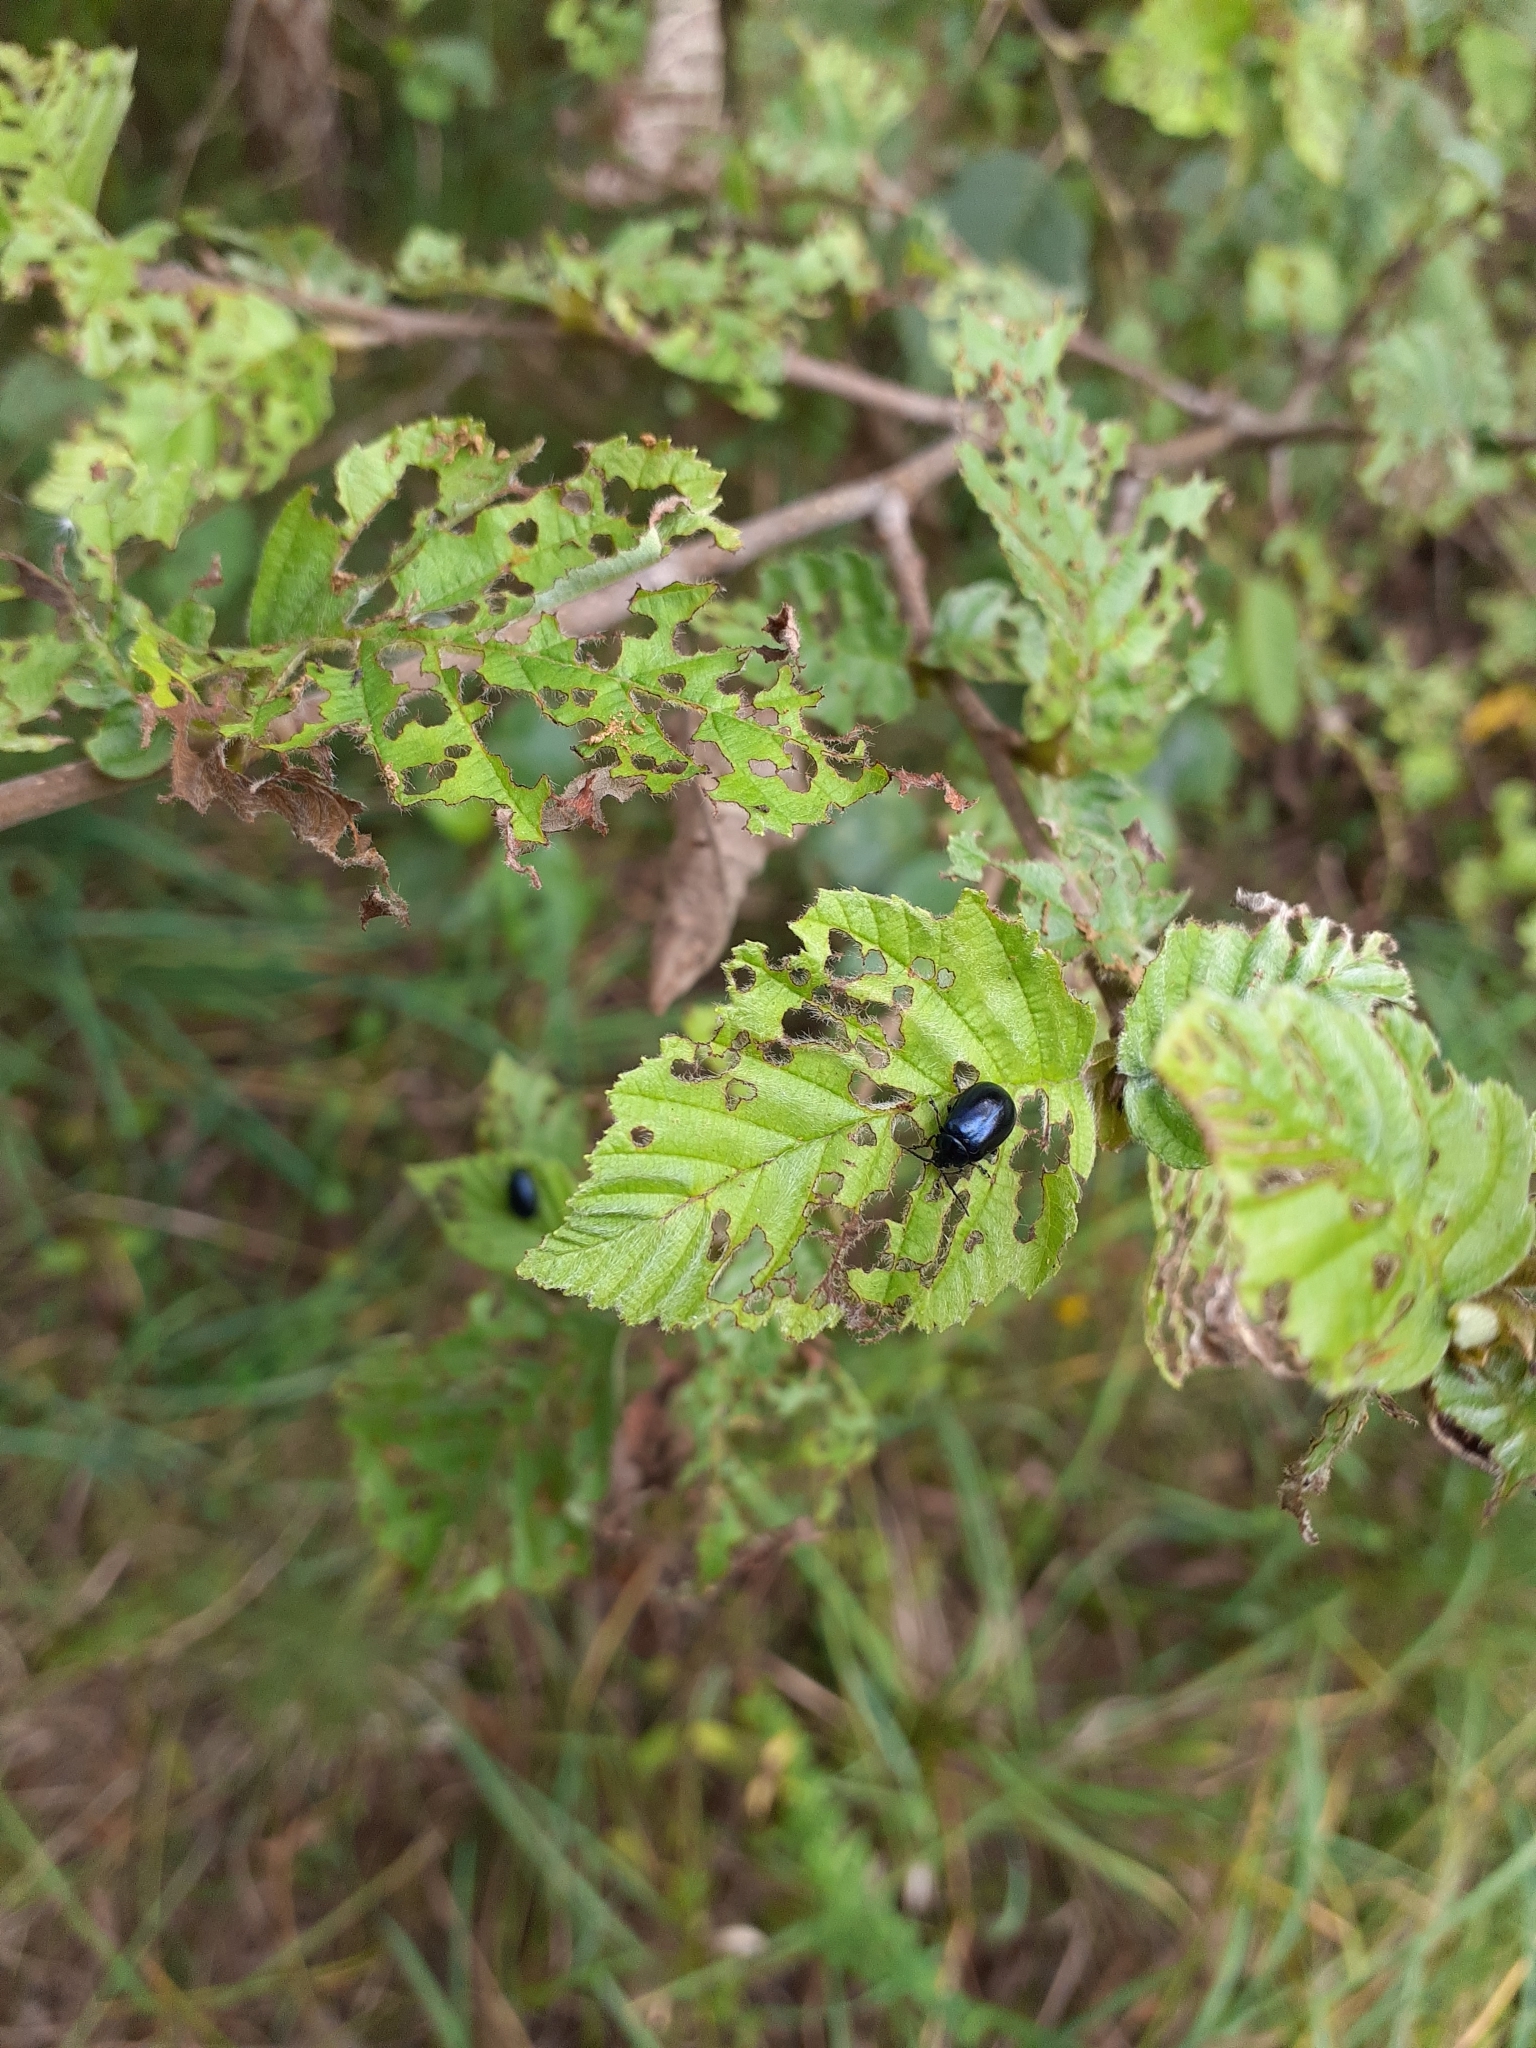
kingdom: Animalia
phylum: Arthropoda
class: Insecta
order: Coleoptera
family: Chrysomelidae
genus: Agelastica
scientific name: Agelastica alni
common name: Alder leaf beetle
